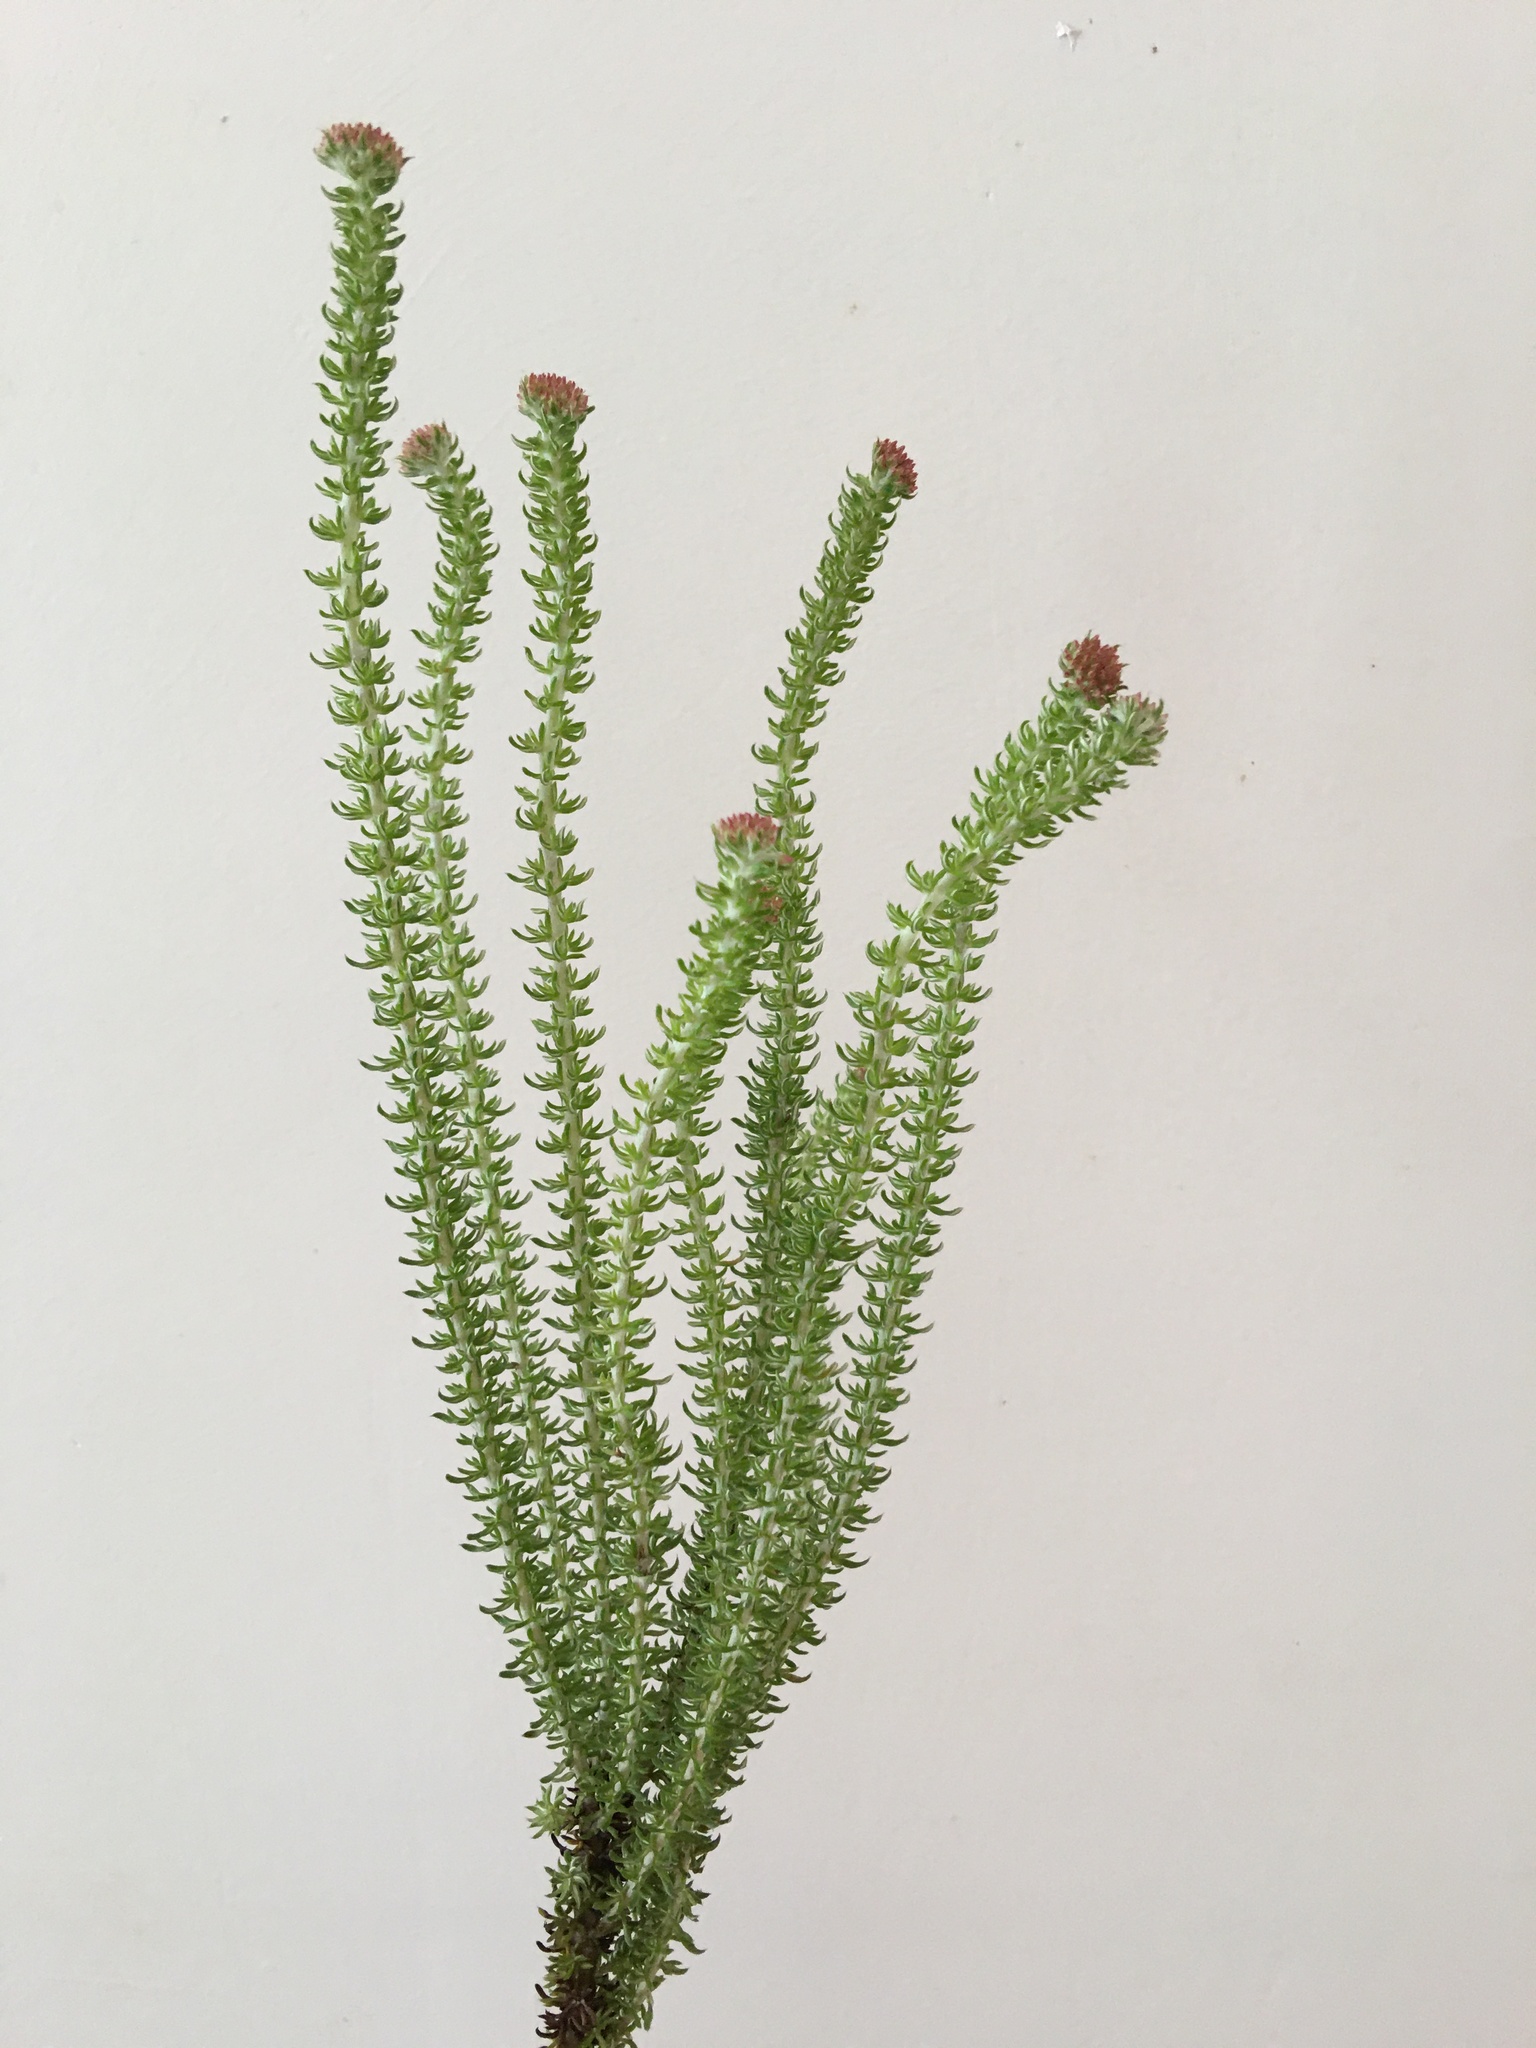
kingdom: Plantae
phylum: Tracheophyta
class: Magnoliopsida
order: Asterales
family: Asteraceae
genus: Metalasia
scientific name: Metalasia muricata
